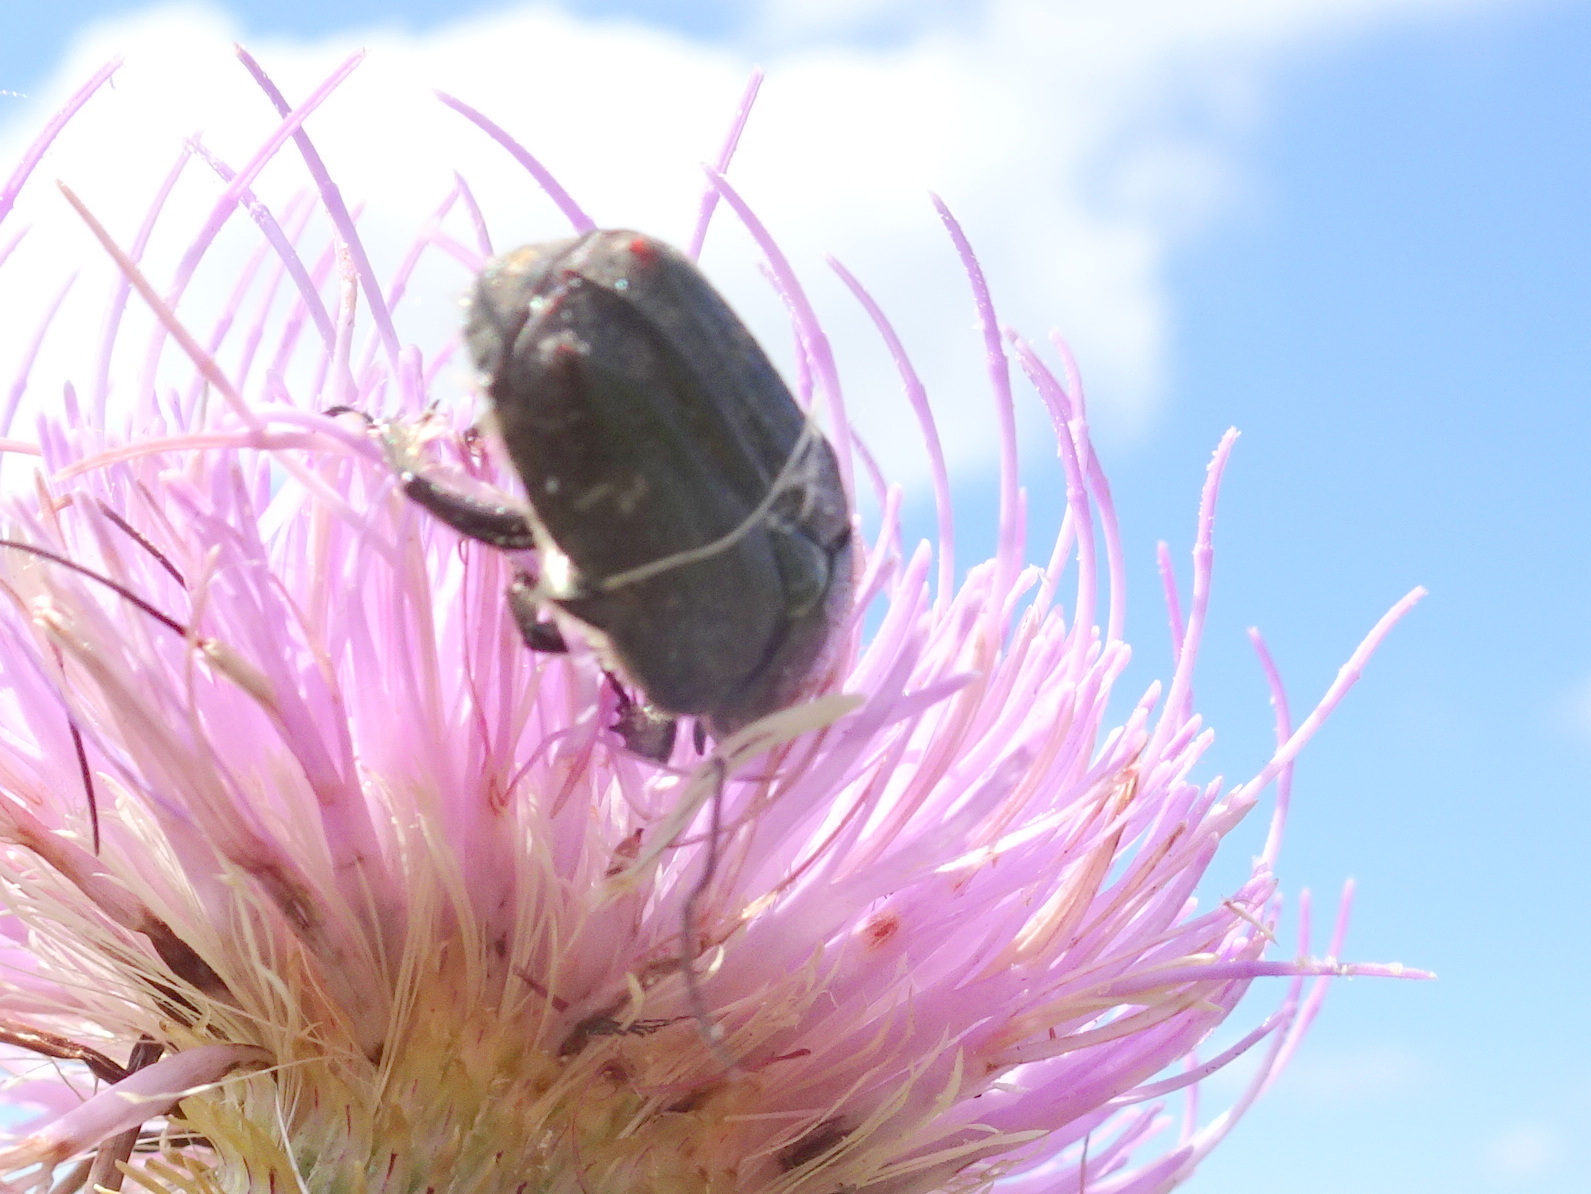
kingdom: Animalia
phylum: Arthropoda
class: Insecta
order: Coleoptera
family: Scarabaeidae
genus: Euphoria
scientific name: Euphoria sepulcralis
